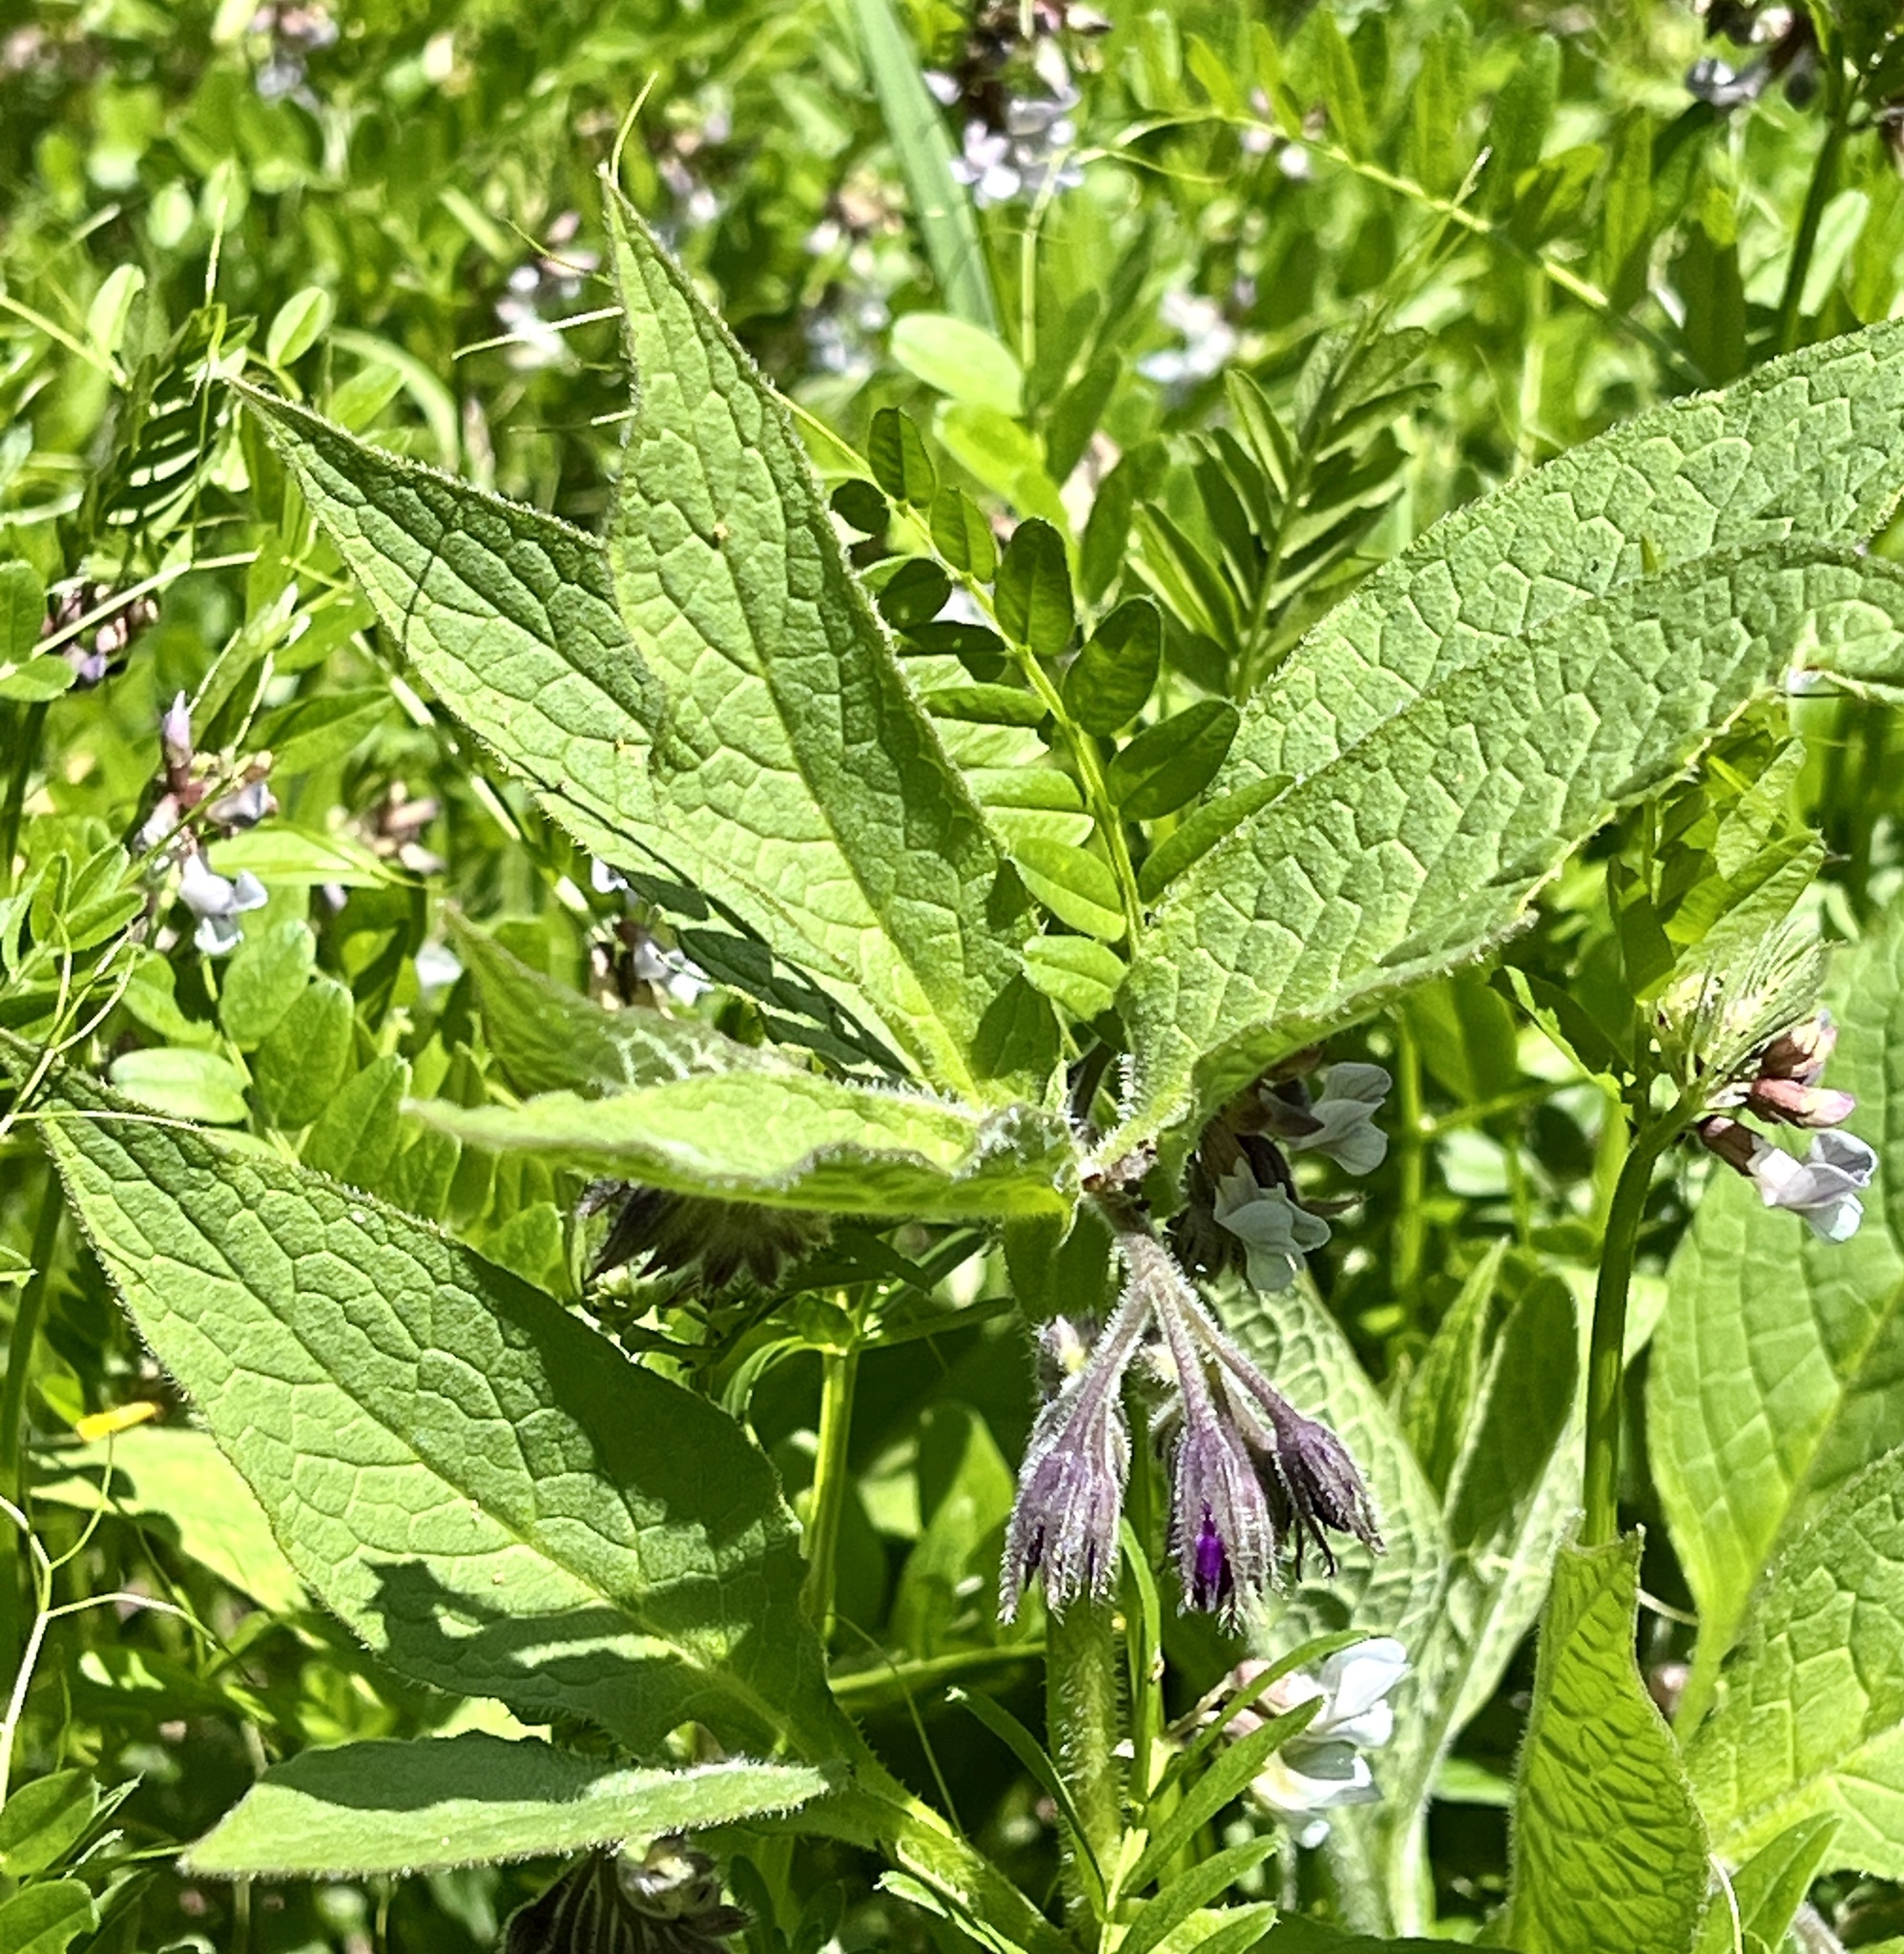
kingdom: Plantae
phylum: Tracheophyta
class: Magnoliopsida
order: Boraginales
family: Boraginaceae
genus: Symphytum
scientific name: Symphytum officinale
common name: Common comfrey
